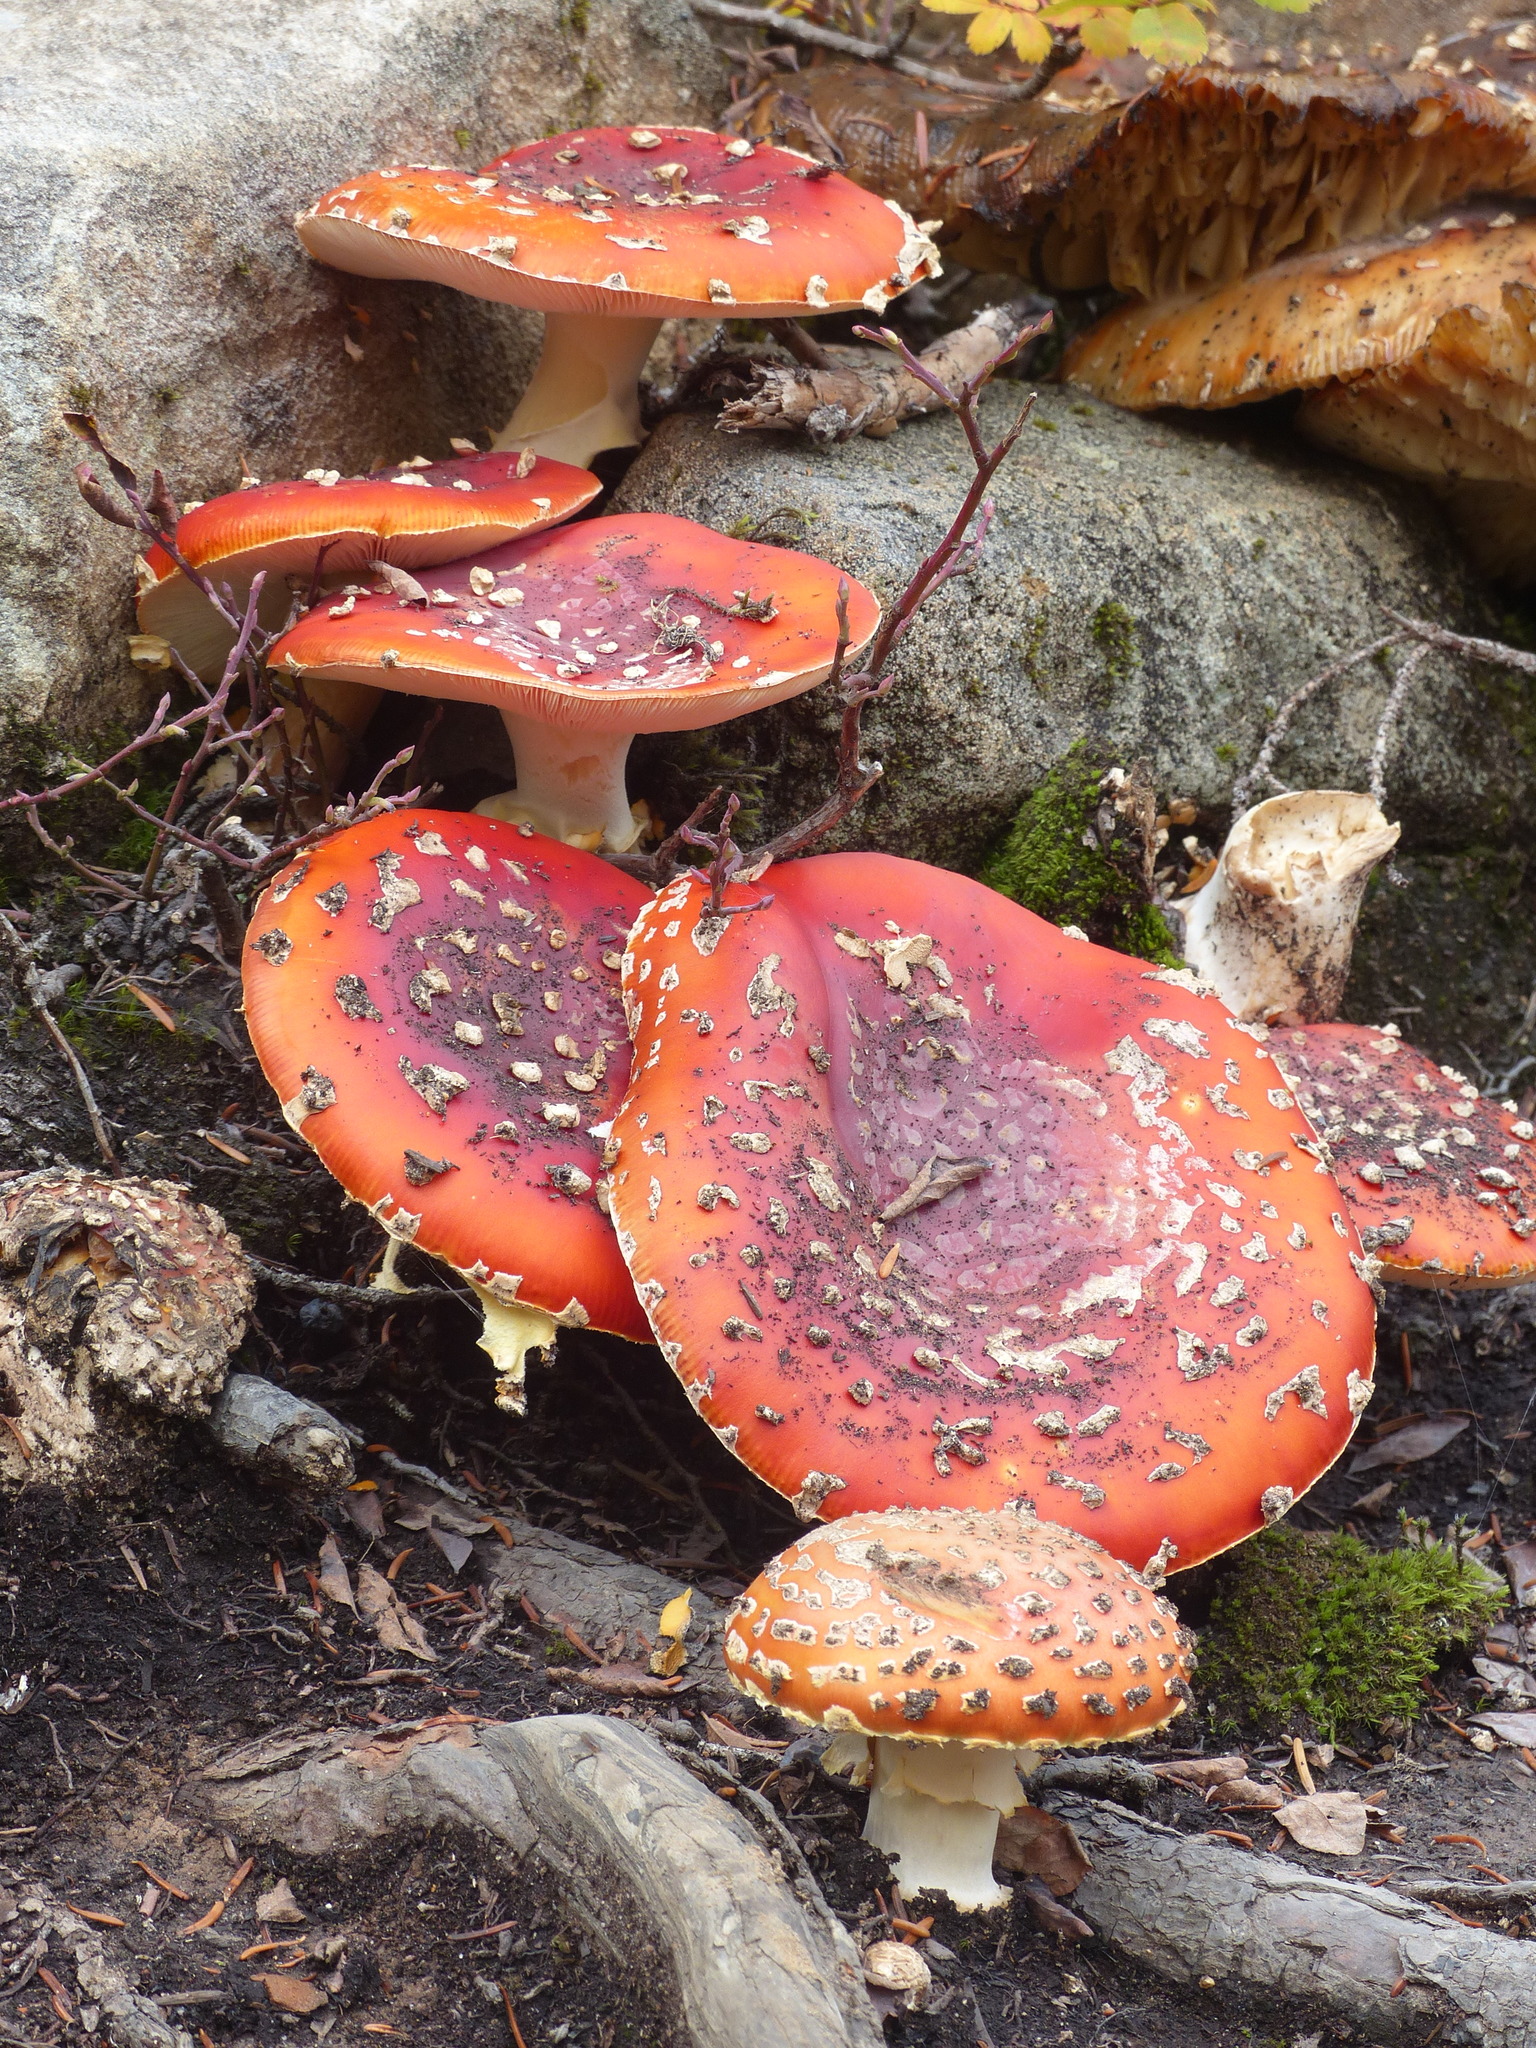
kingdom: Fungi
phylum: Basidiomycota
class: Agaricomycetes
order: Agaricales
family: Amanitaceae
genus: Amanita
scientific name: Amanita muscaria
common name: Fly agaric
